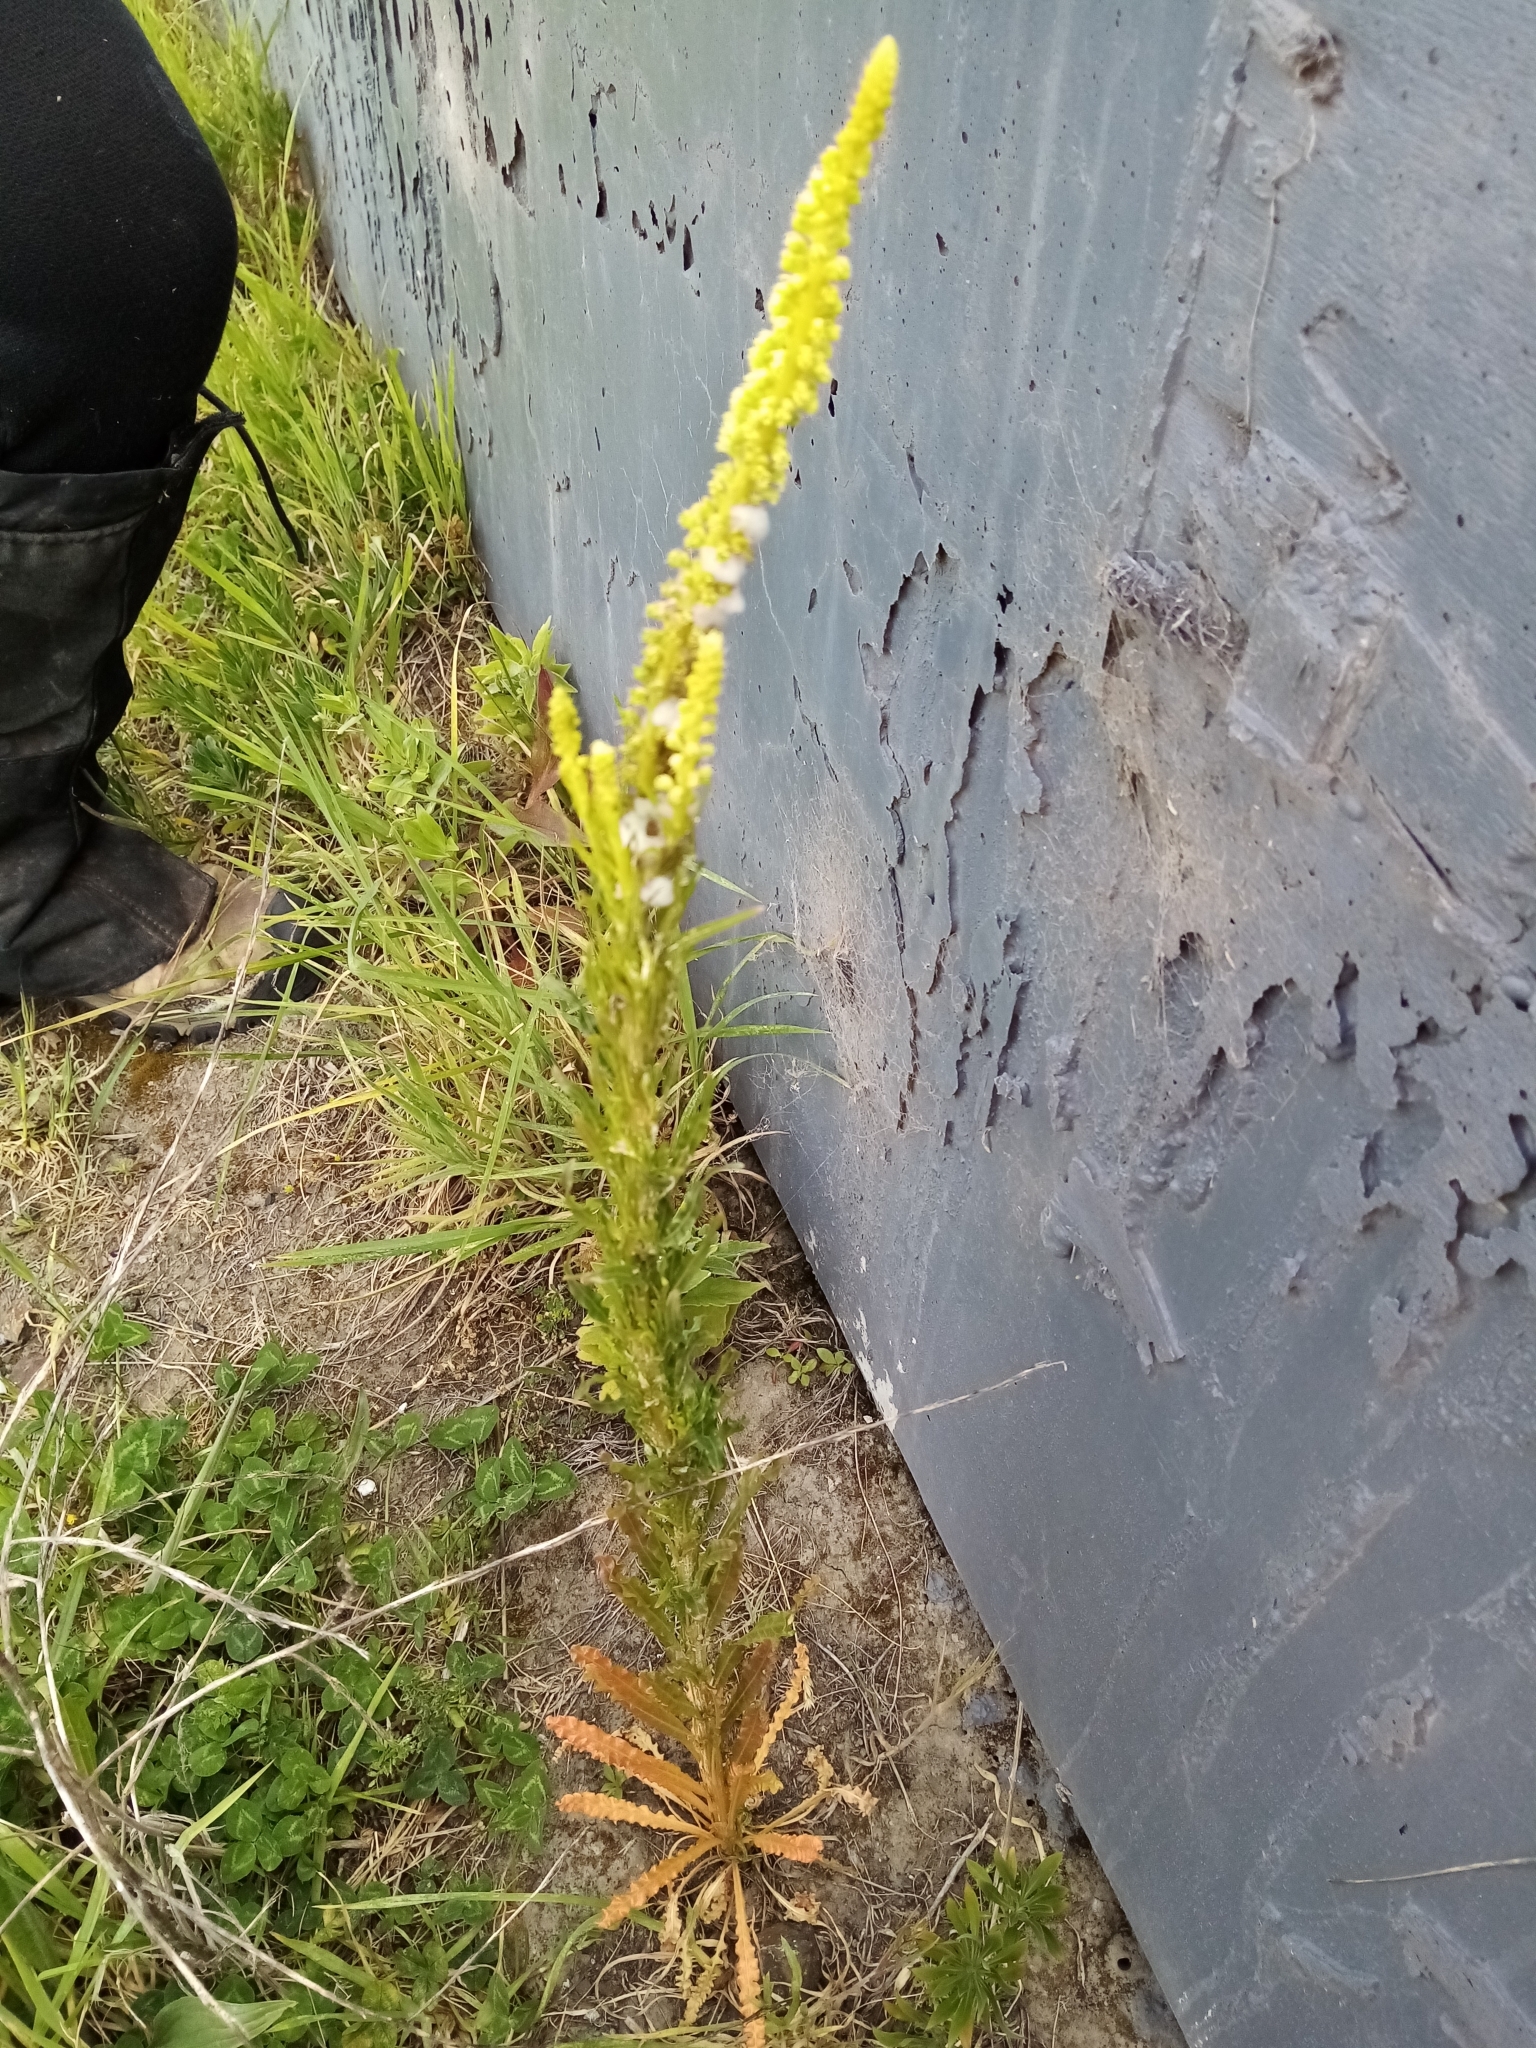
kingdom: Plantae
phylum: Tracheophyta
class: Magnoliopsida
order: Brassicales
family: Resedaceae
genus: Reseda
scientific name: Reseda luteola
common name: Weld
